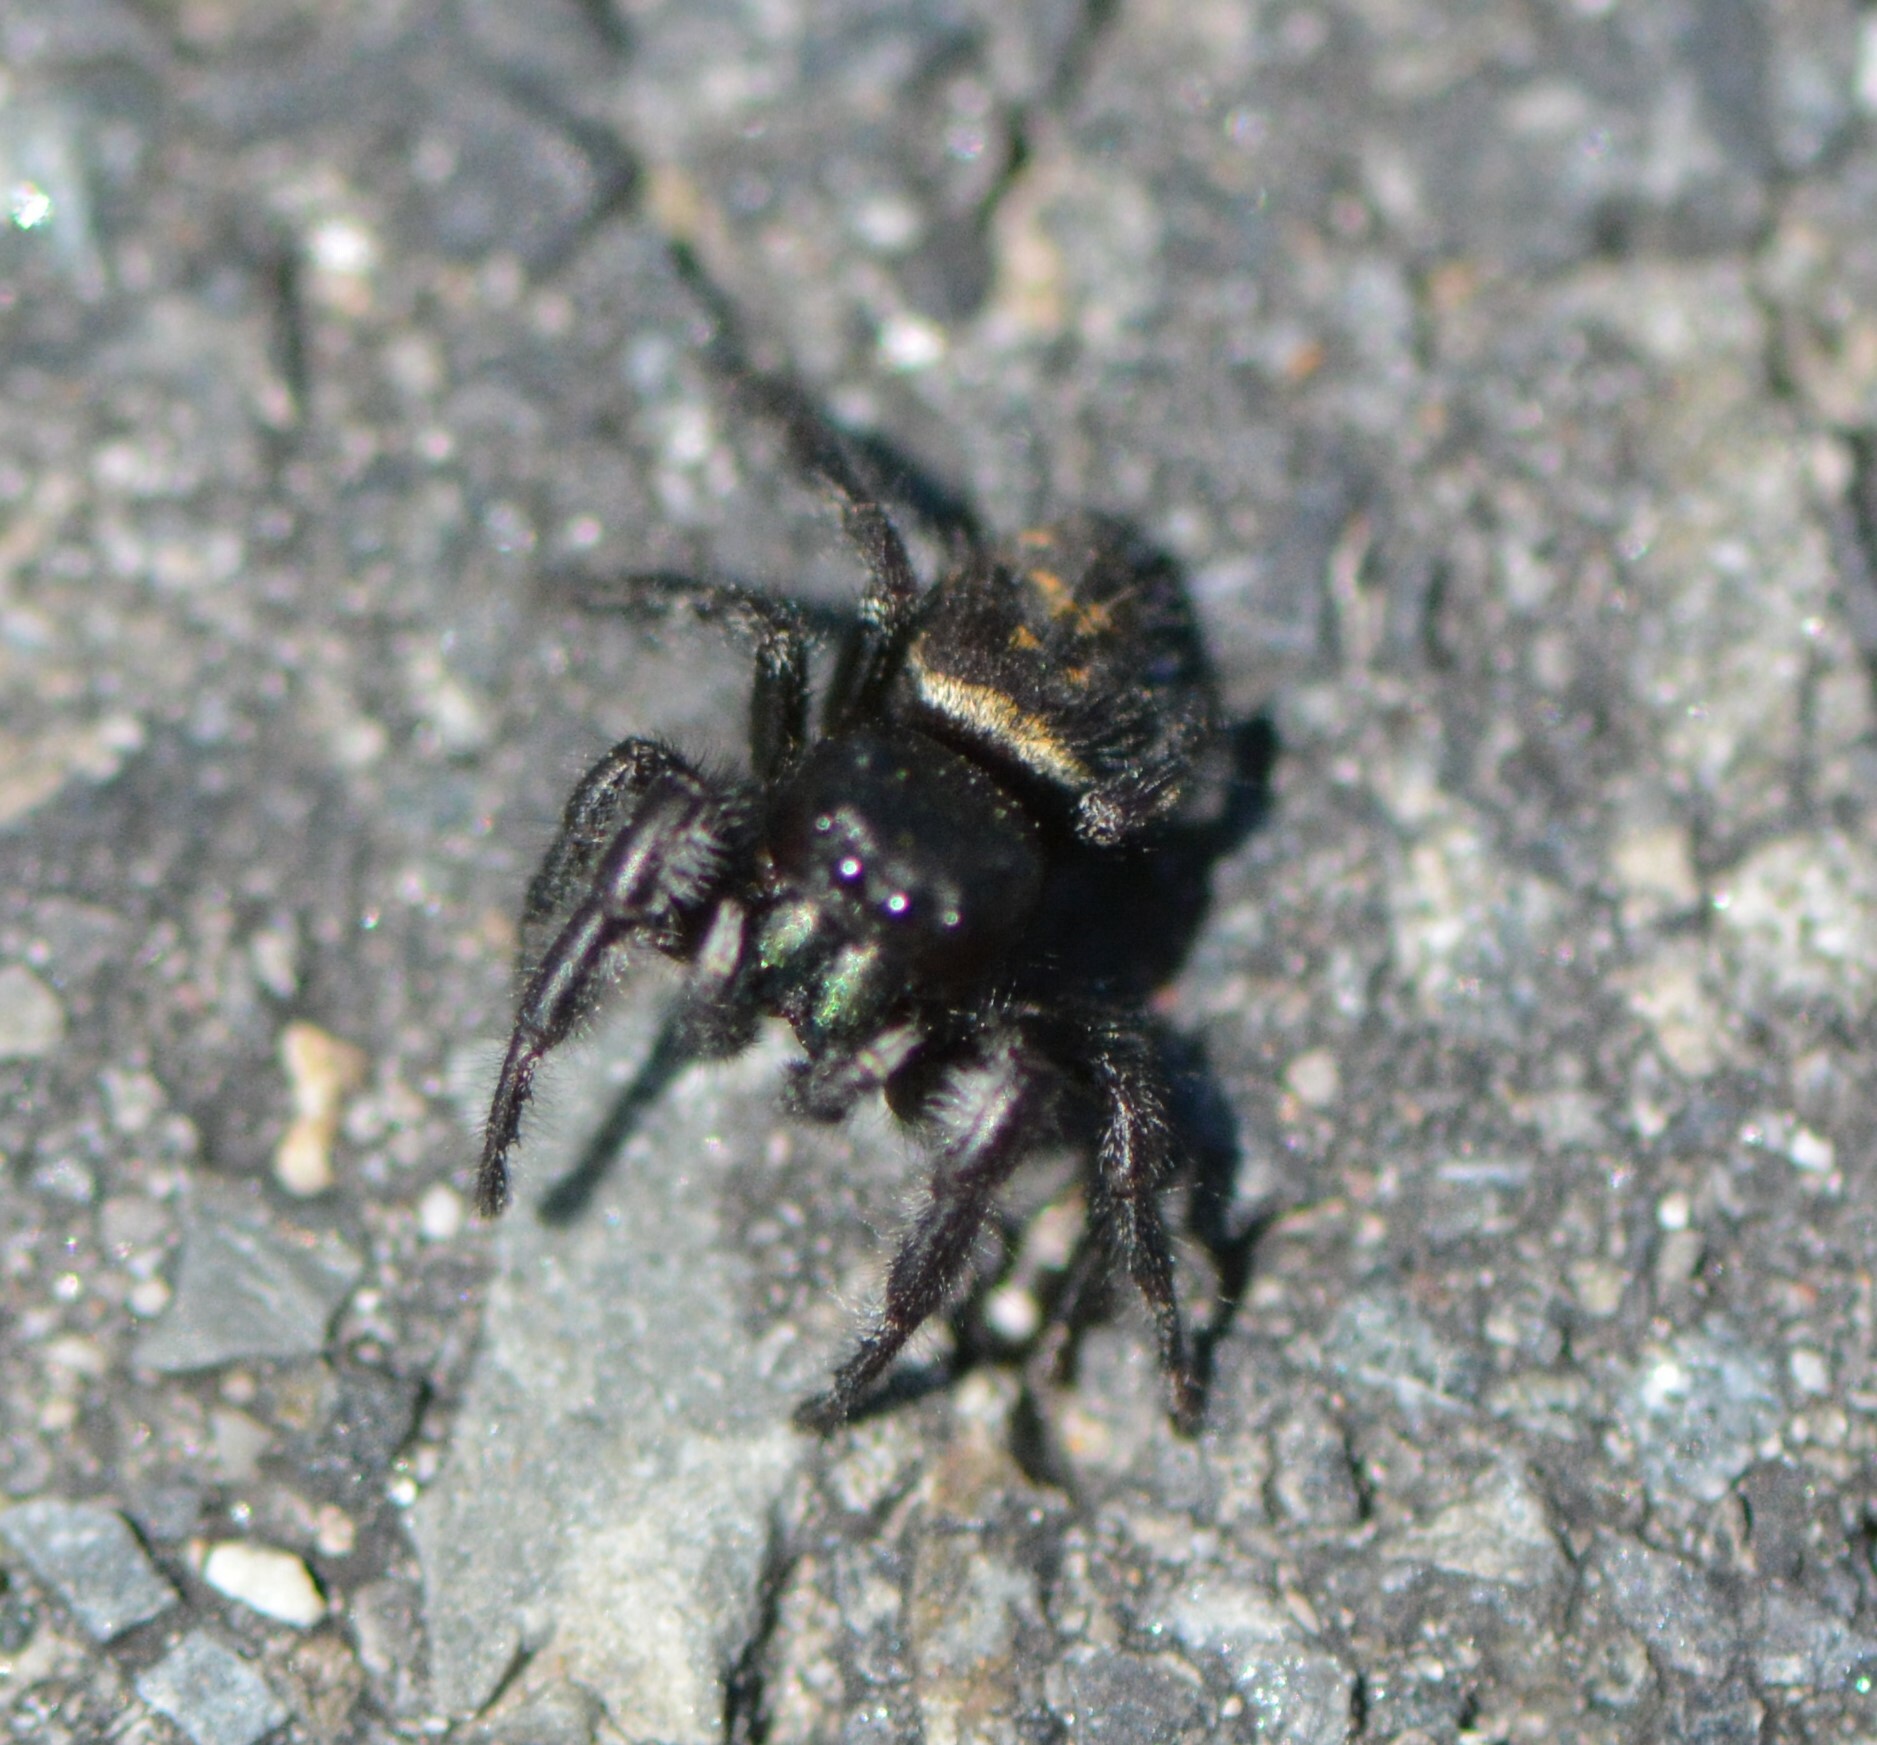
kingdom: Animalia
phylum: Arthropoda
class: Arachnida
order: Araneae
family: Salticidae
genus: Phidippus
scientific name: Phidippus princeps
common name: Grayish jumping spider
